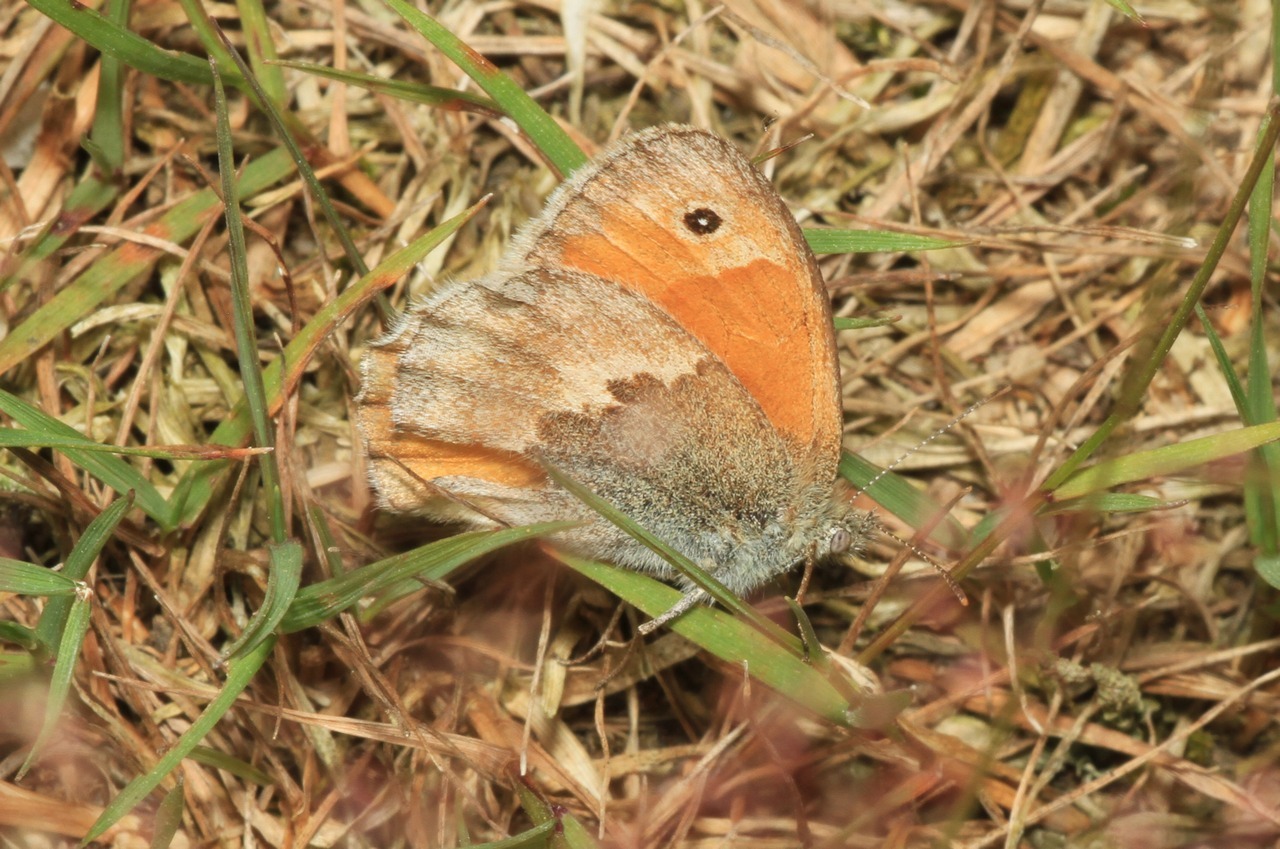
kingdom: Animalia
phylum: Arthropoda
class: Insecta
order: Lepidoptera
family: Nymphalidae
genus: Coenonympha
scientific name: Coenonympha pamphilus
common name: Small heath
